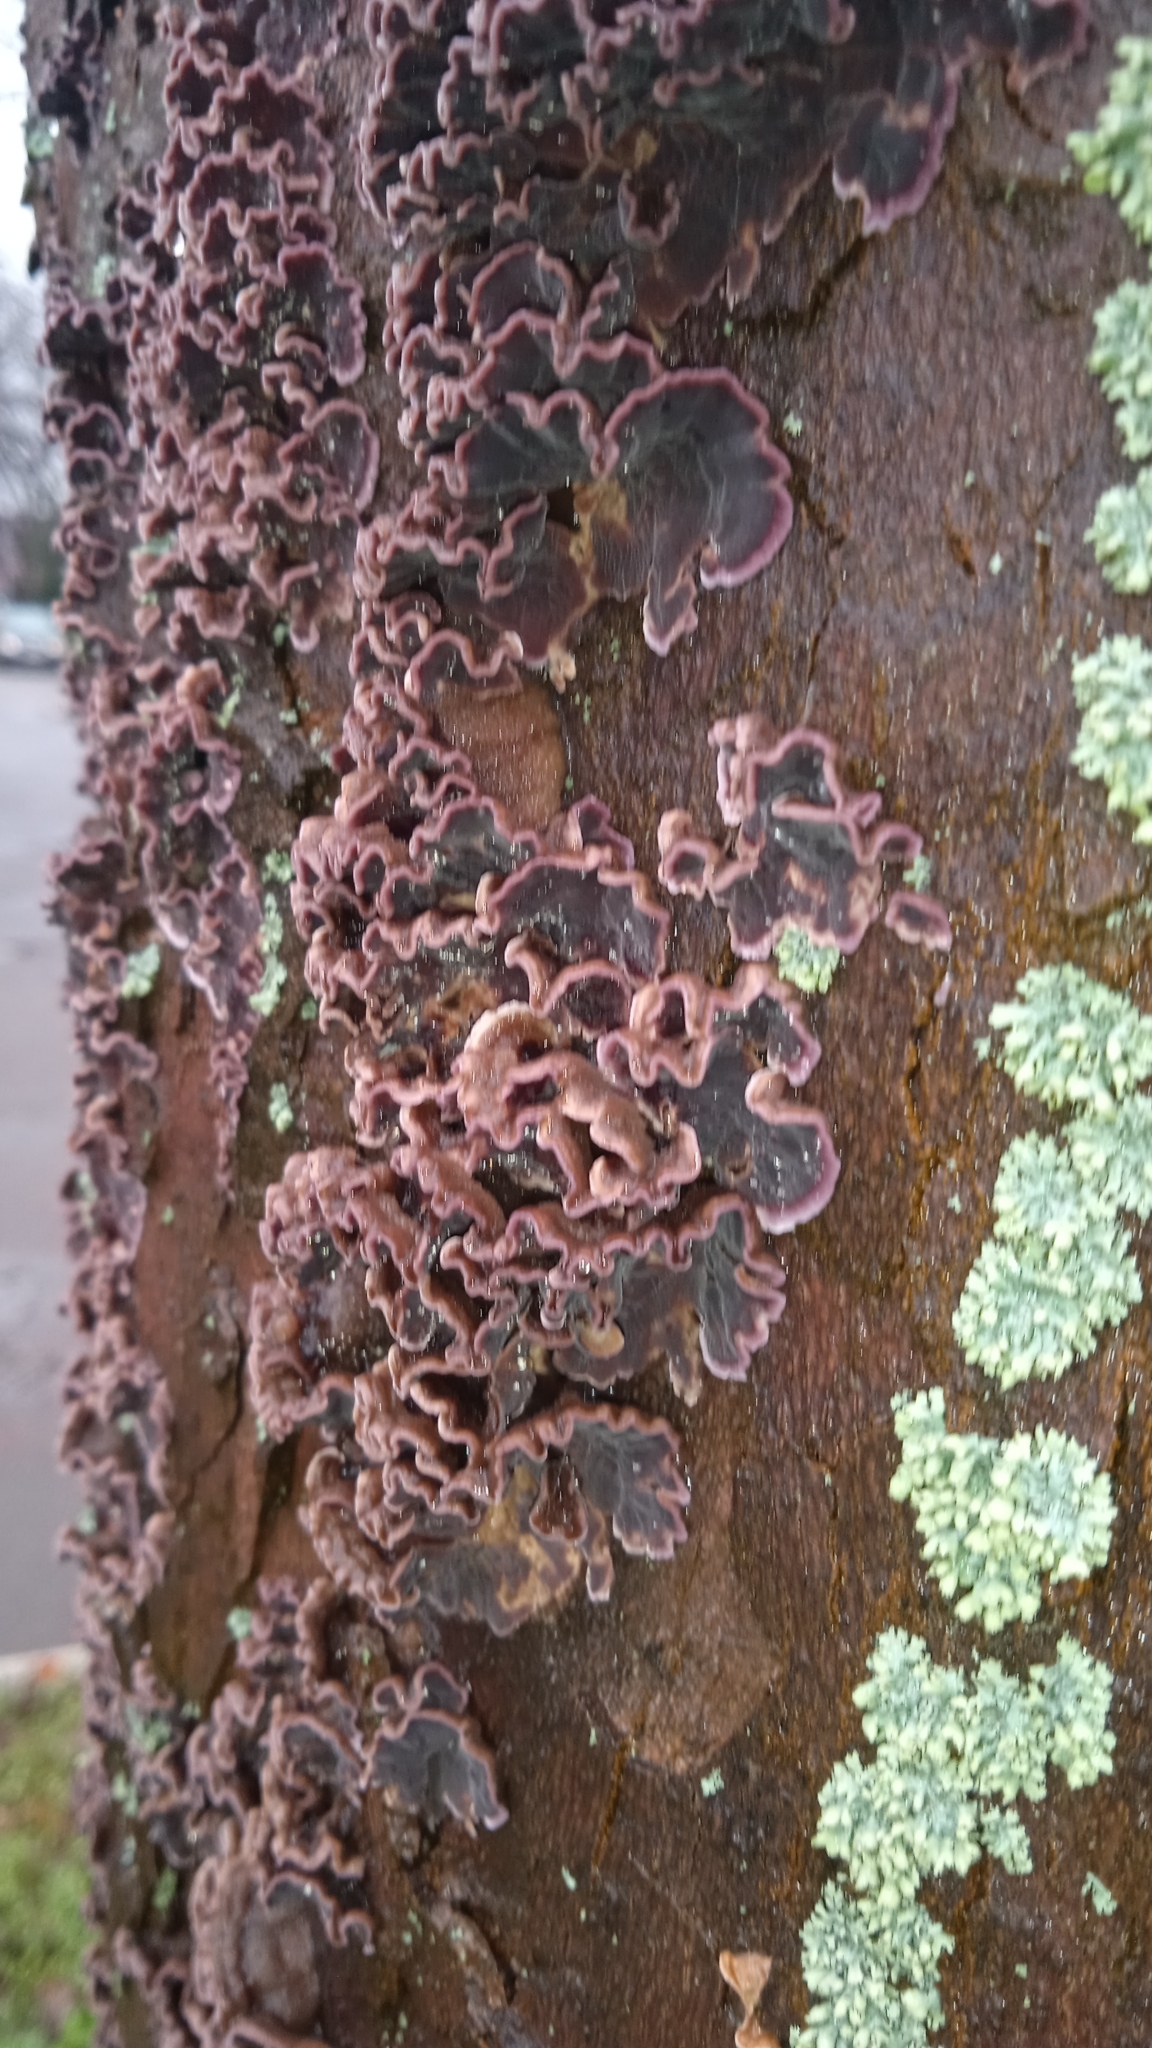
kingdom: Fungi
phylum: Basidiomycota
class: Agaricomycetes
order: Agaricales
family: Cyphellaceae
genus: Chondrostereum
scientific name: Chondrostereum purpureum
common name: Silver leaf disease
